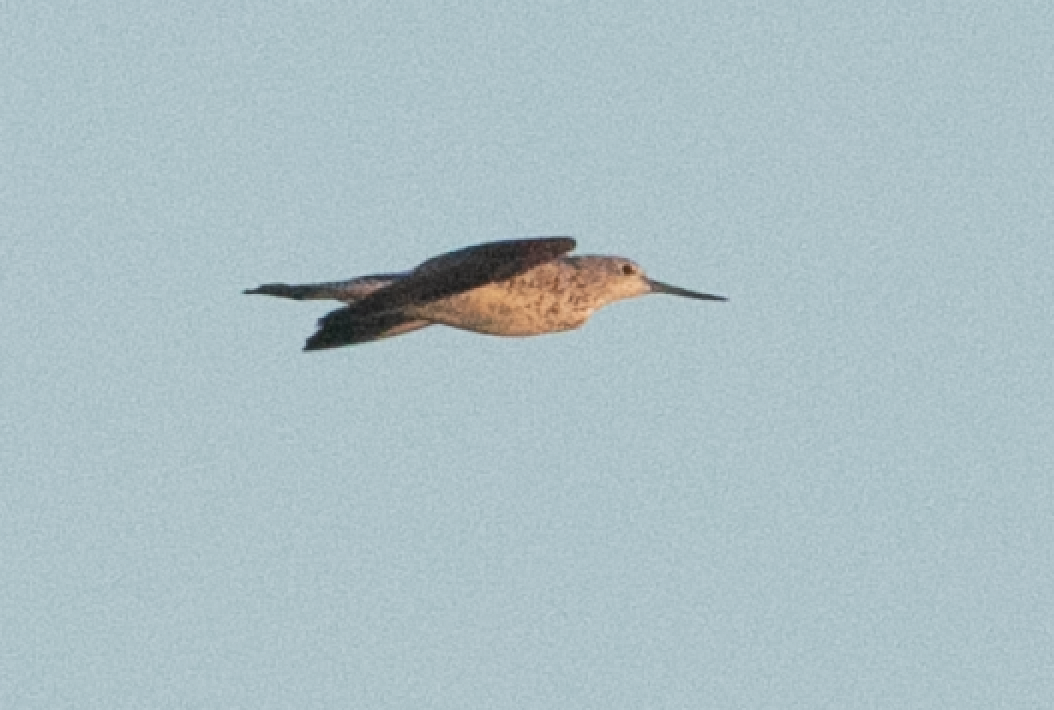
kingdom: Animalia
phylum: Chordata
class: Aves
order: Charadriiformes
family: Scolopacidae
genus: Tringa
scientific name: Tringa nebularia
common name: Common greenshank
